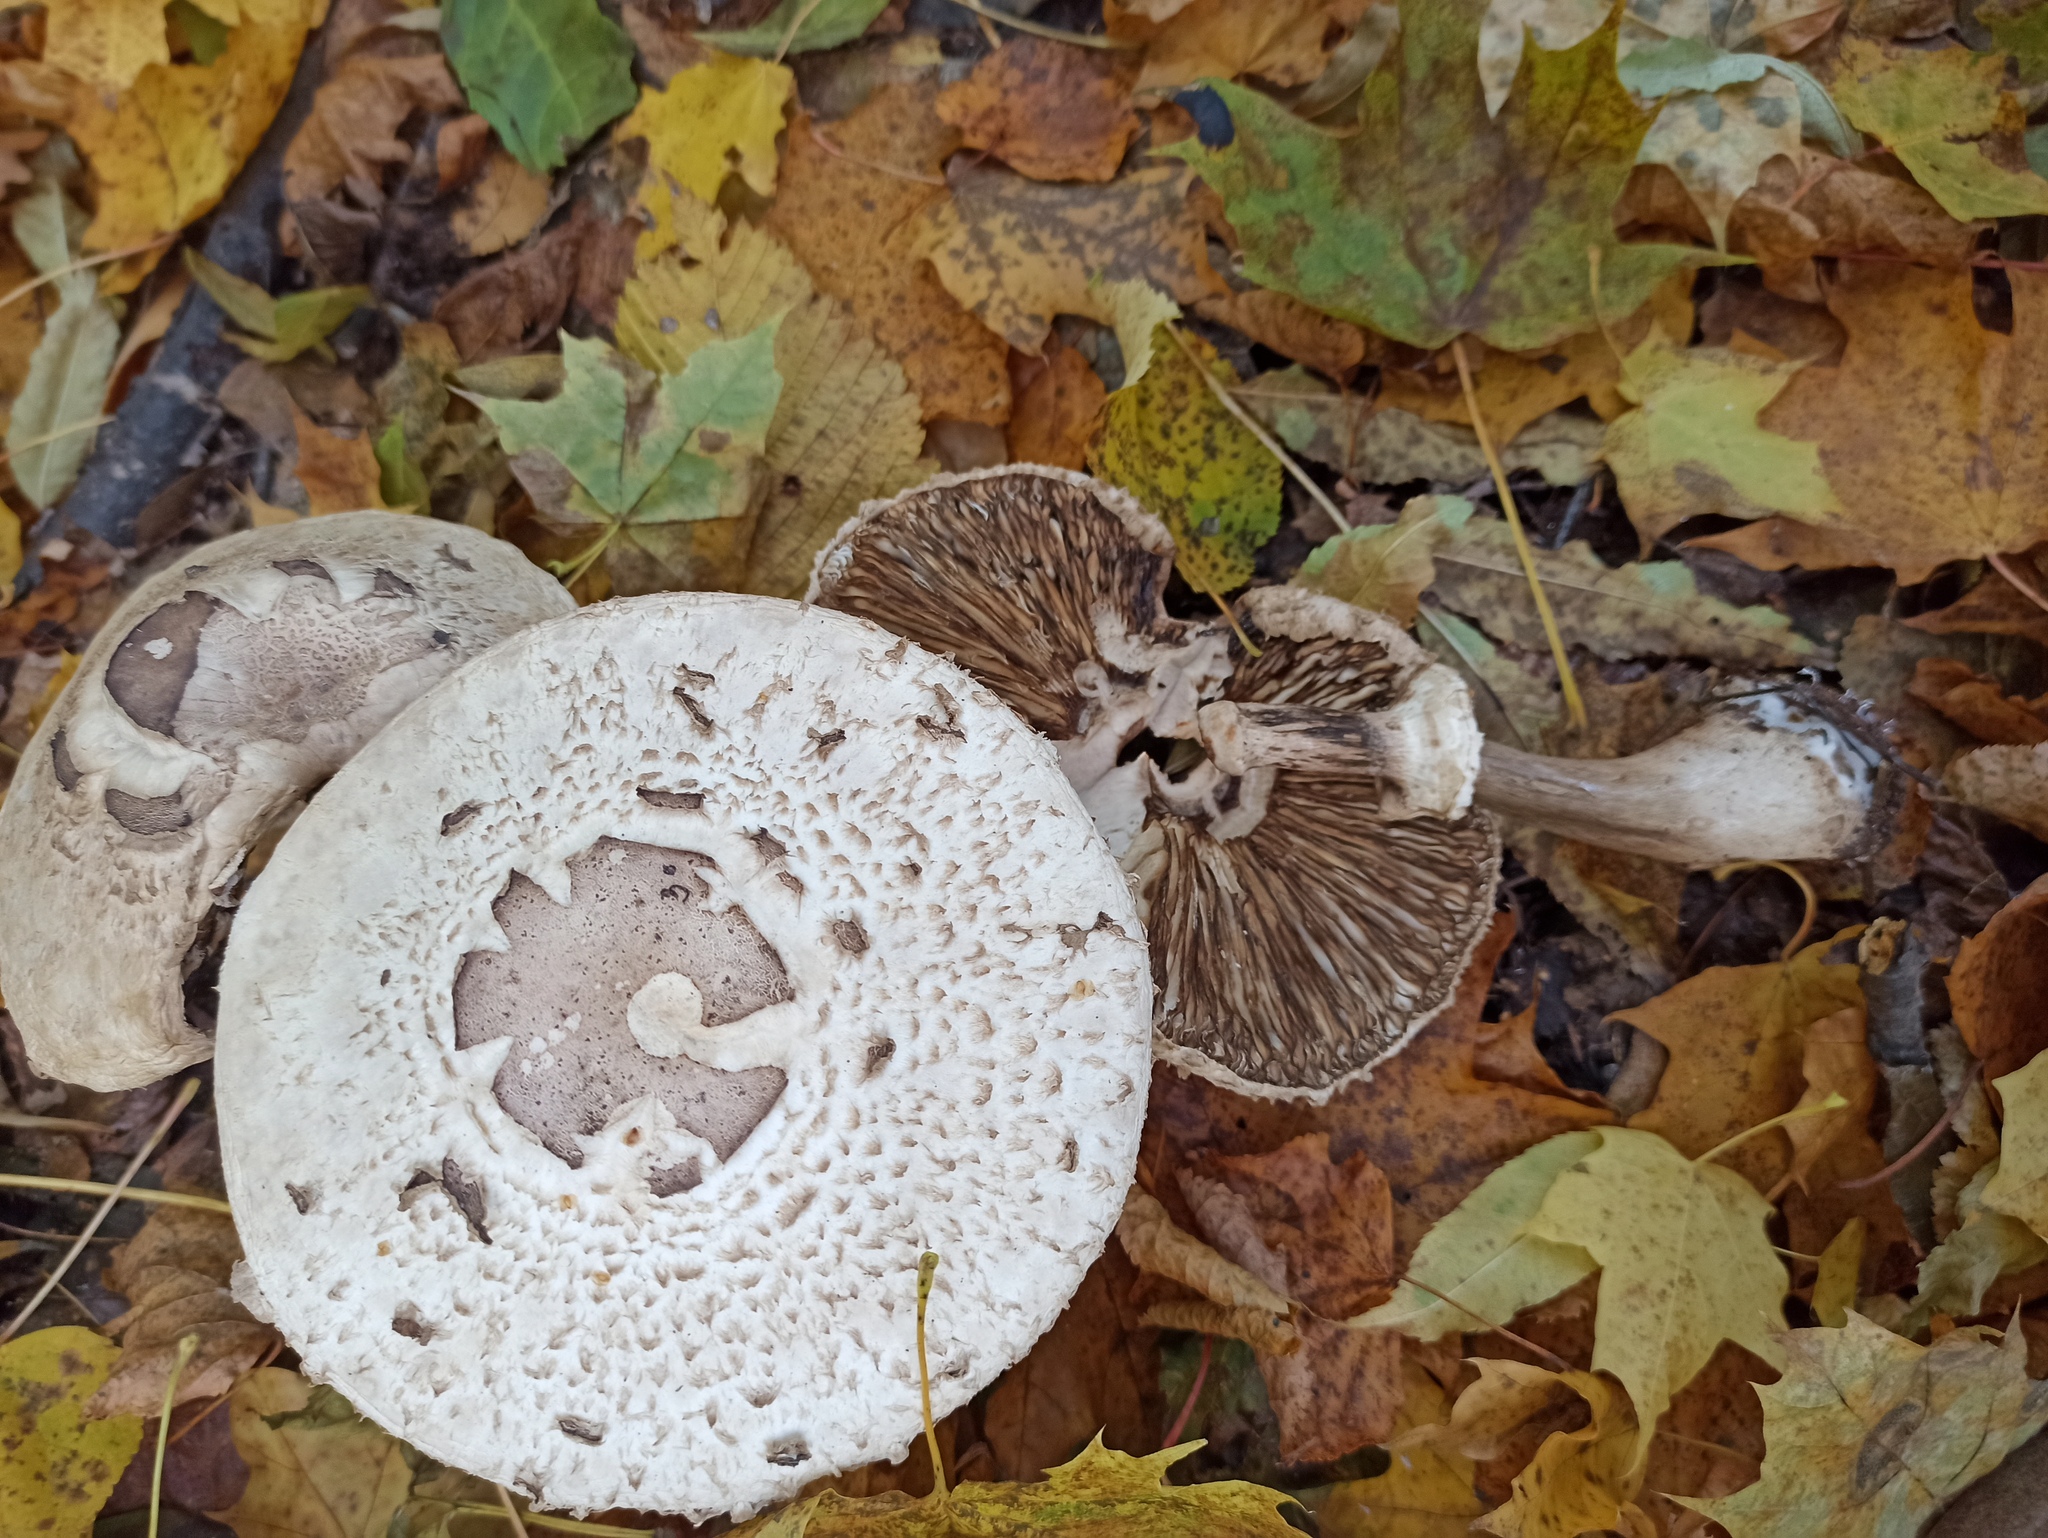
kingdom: Fungi
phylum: Basidiomycota
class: Agaricomycetes
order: Agaricales
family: Agaricaceae
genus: Chlorophyllum
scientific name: Chlorophyllum rhacodes
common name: Shaggy parasol
